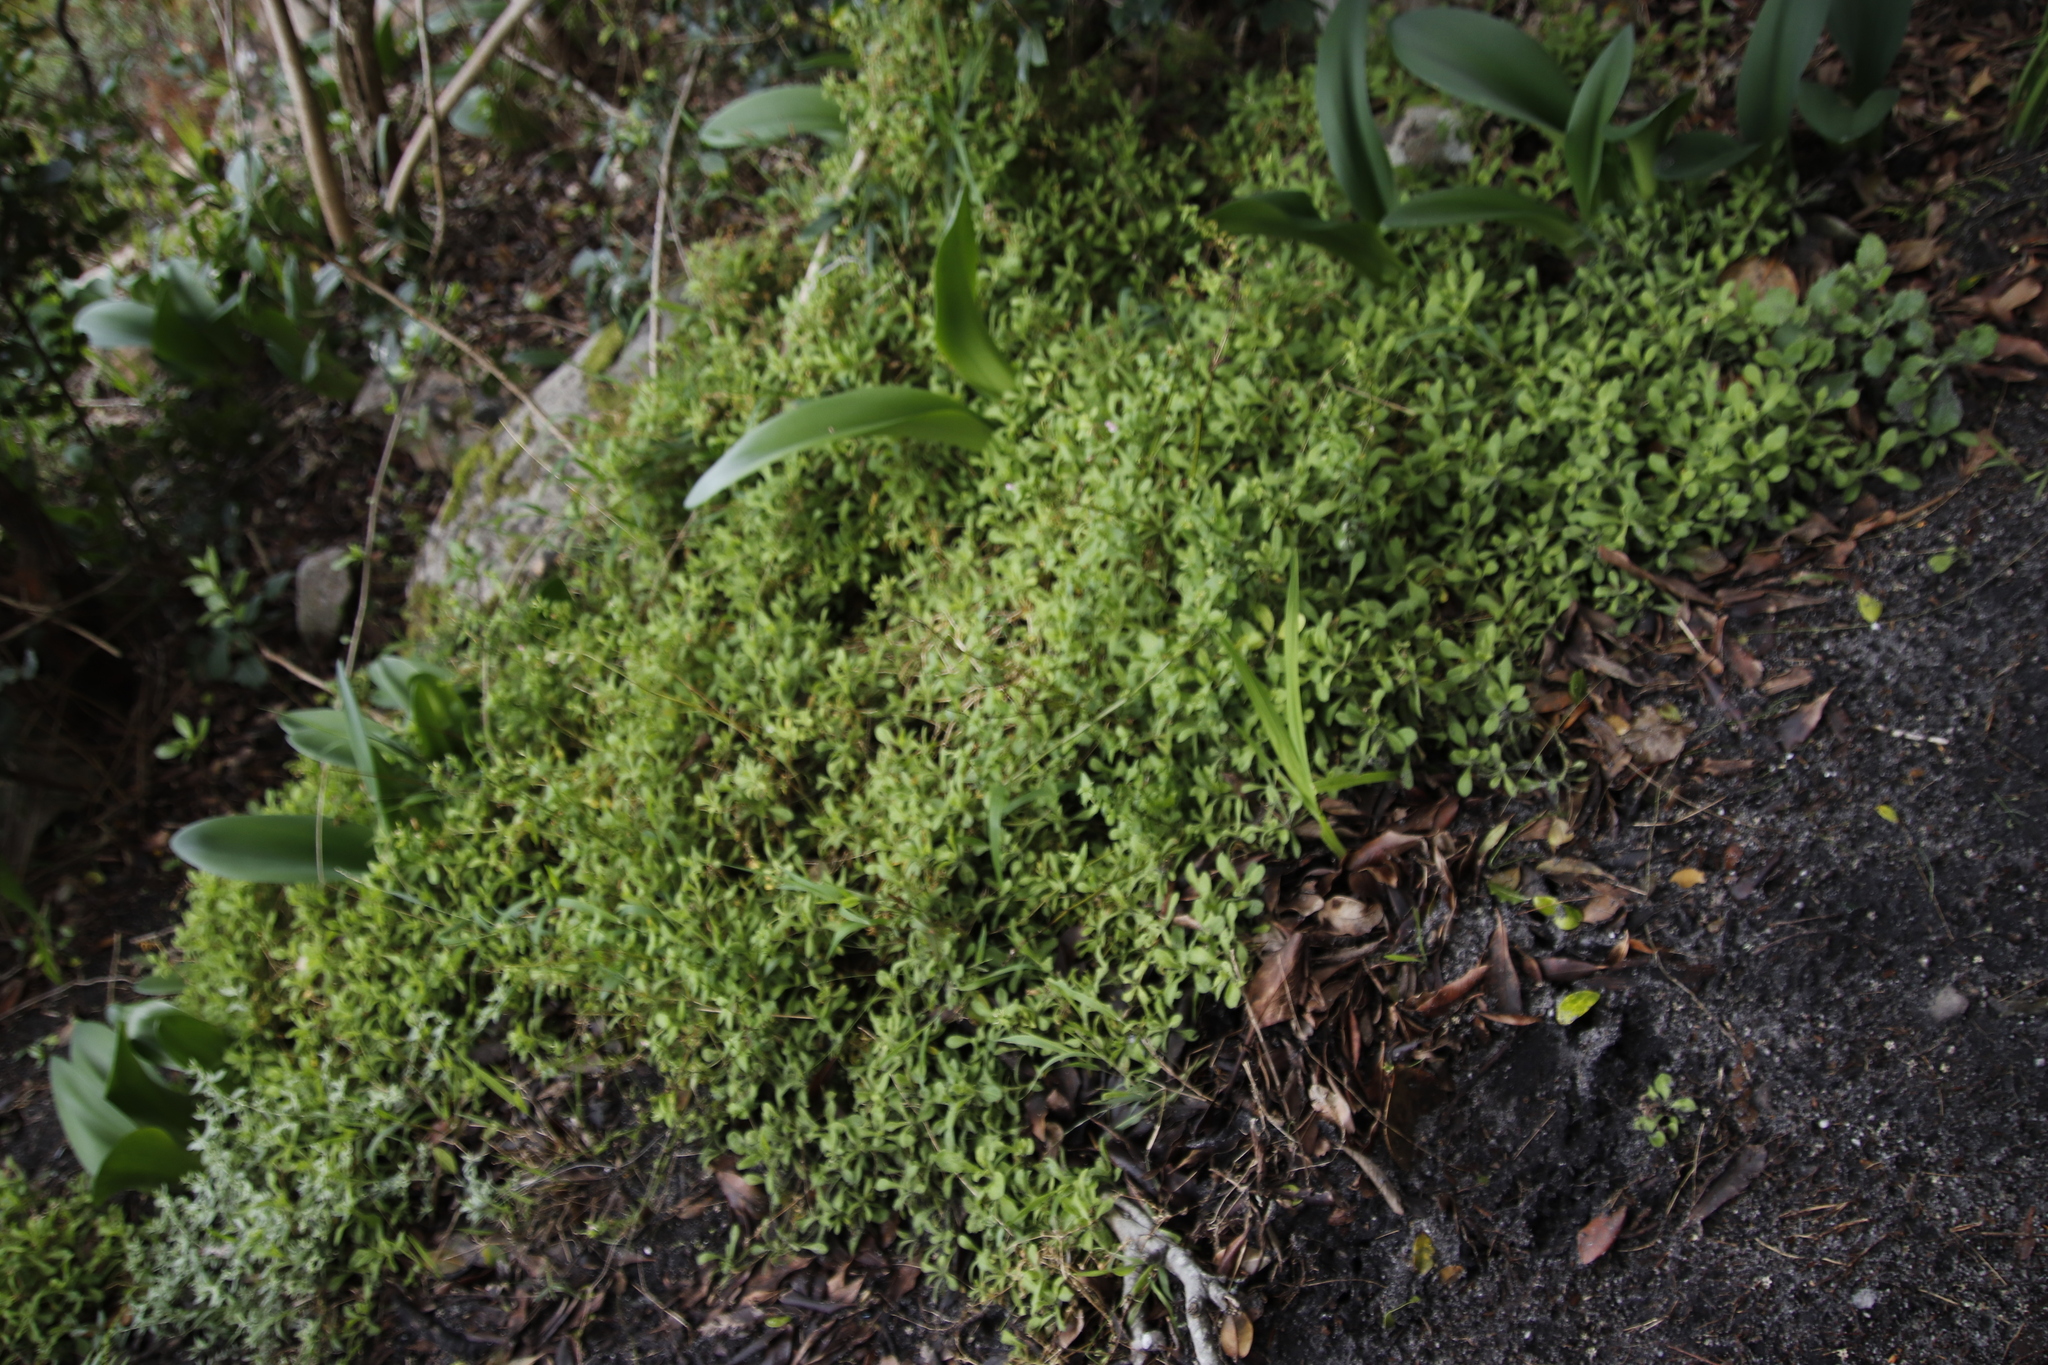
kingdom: Plantae
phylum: Tracheophyta
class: Liliopsida
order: Asparagales
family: Amaryllidaceae
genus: Haemanthus
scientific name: Haemanthus coccineus
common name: Cape-tulip
